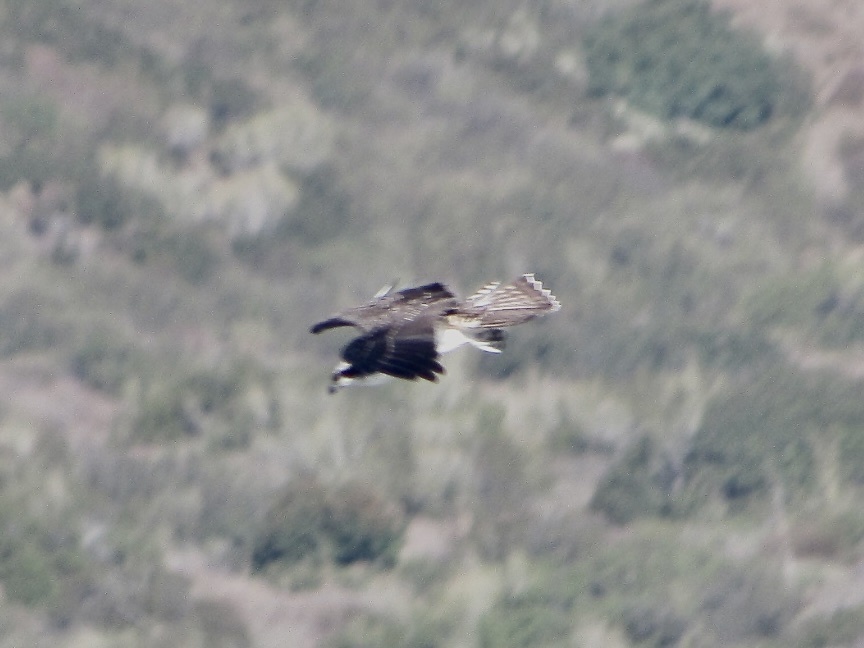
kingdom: Animalia
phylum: Chordata
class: Aves
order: Accipitriformes
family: Pandionidae
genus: Pandion
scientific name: Pandion haliaetus
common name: Osprey
